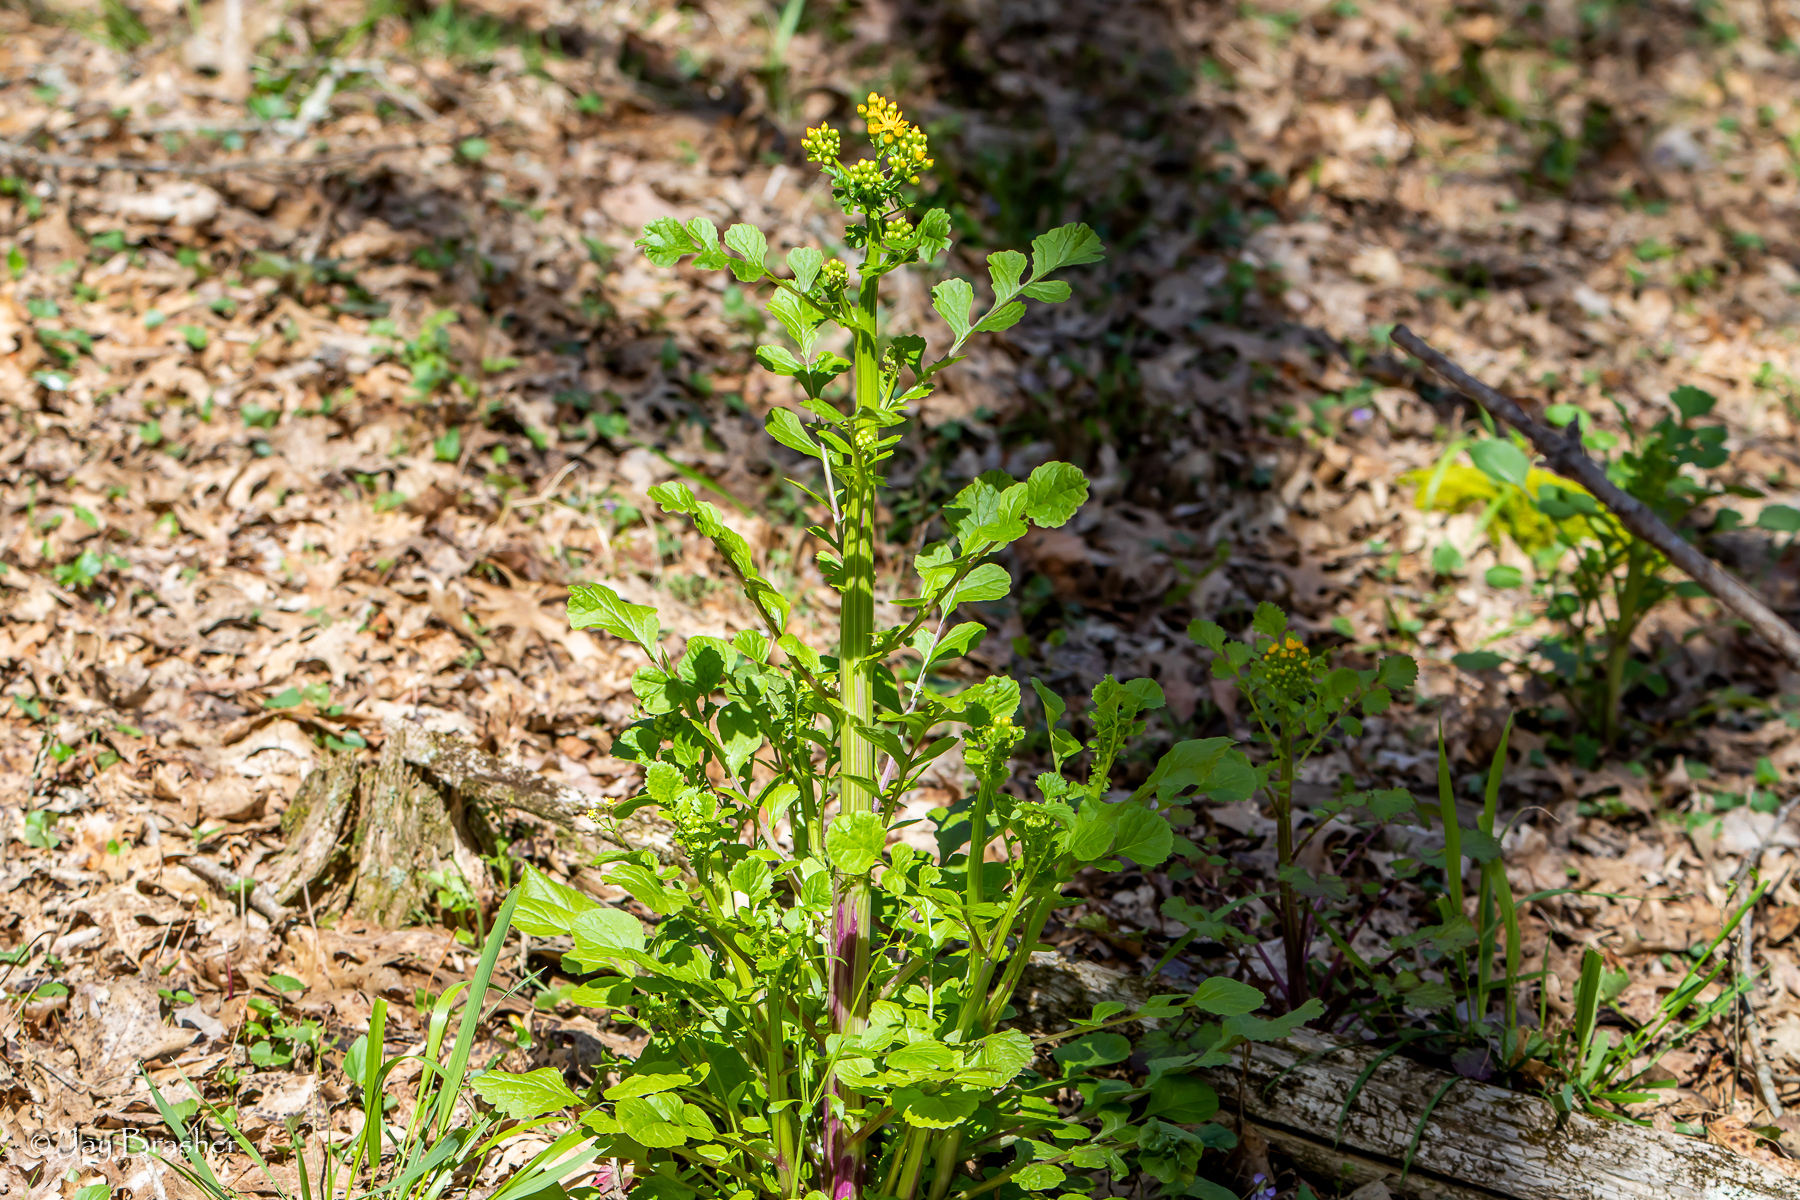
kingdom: Plantae
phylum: Tracheophyta
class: Magnoliopsida
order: Asterales
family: Asteraceae
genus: Packera
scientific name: Packera glabella
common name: Butterweed
